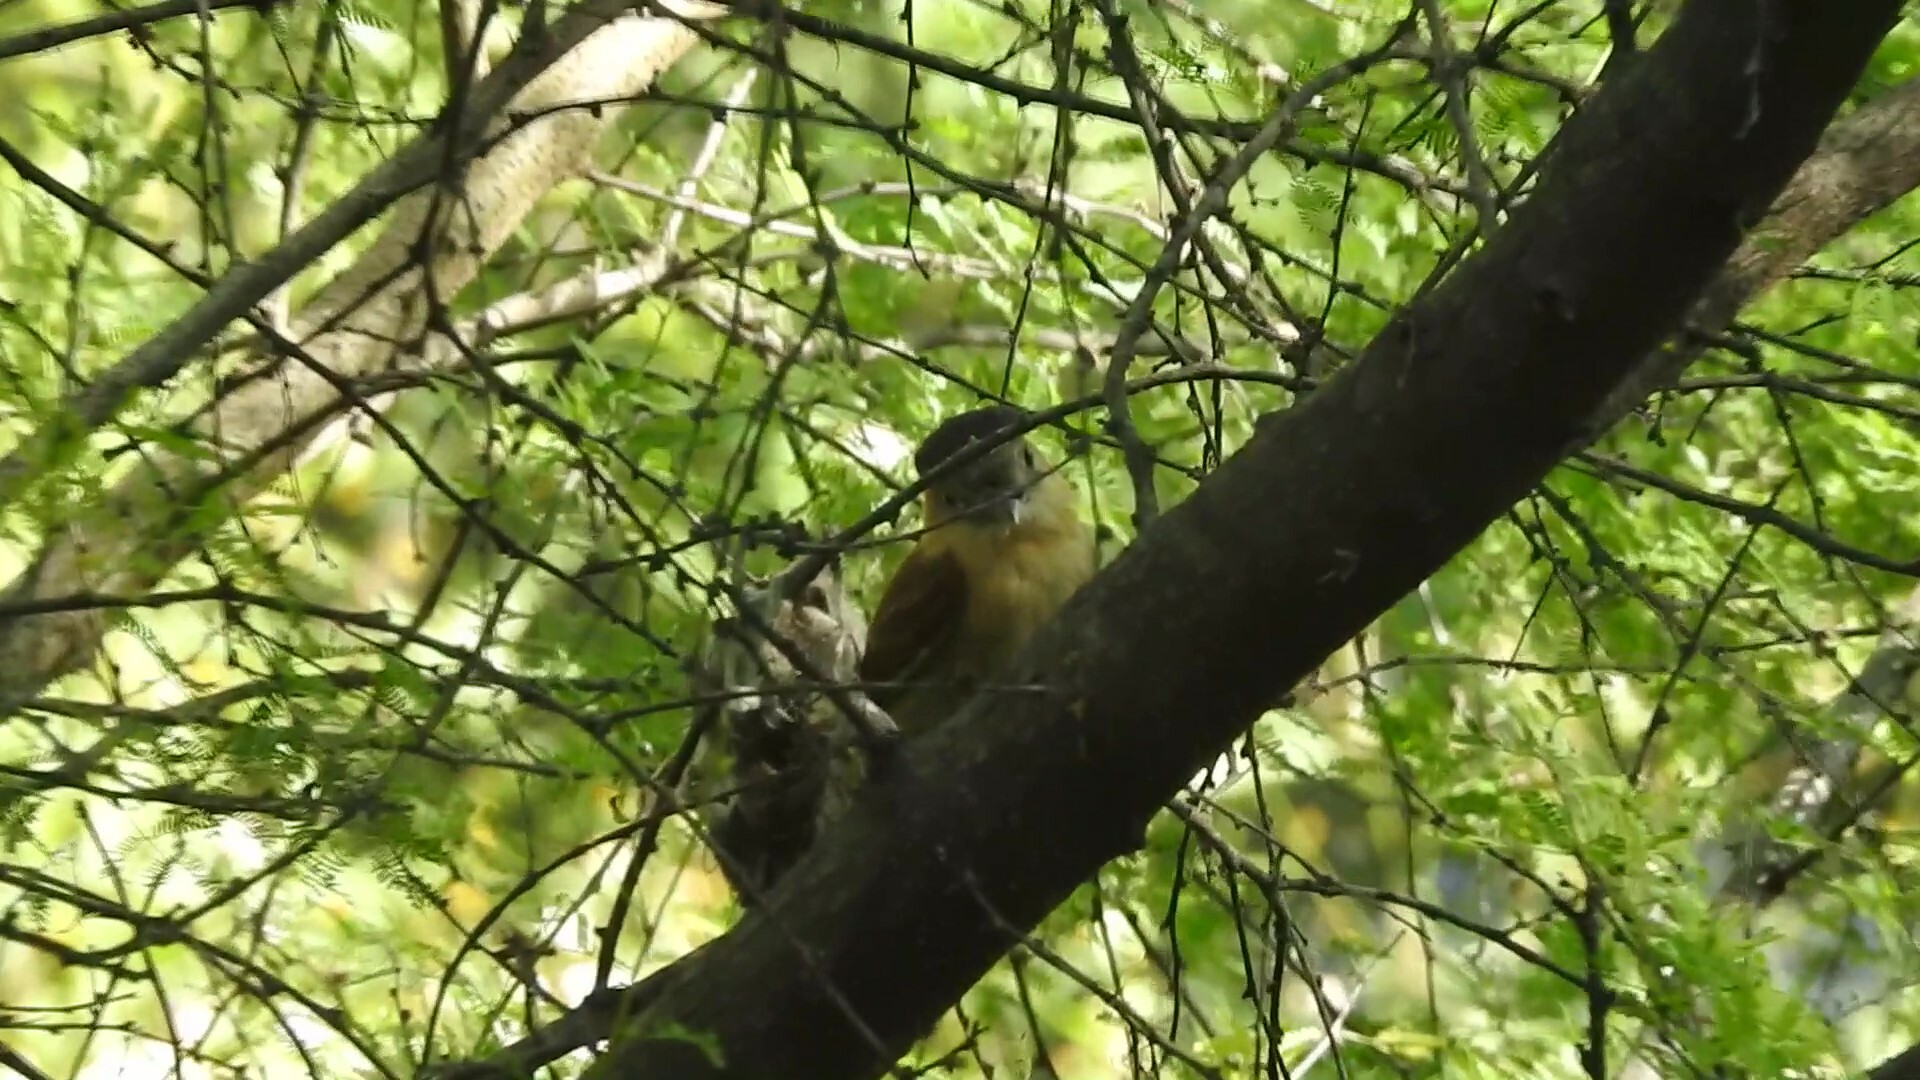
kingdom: Animalia
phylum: Chordata
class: Aves
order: Passeriformes
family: Cotingidae
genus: Pachyramphus
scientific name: Pachyramphus aglaiae
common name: Rose-throated becard
